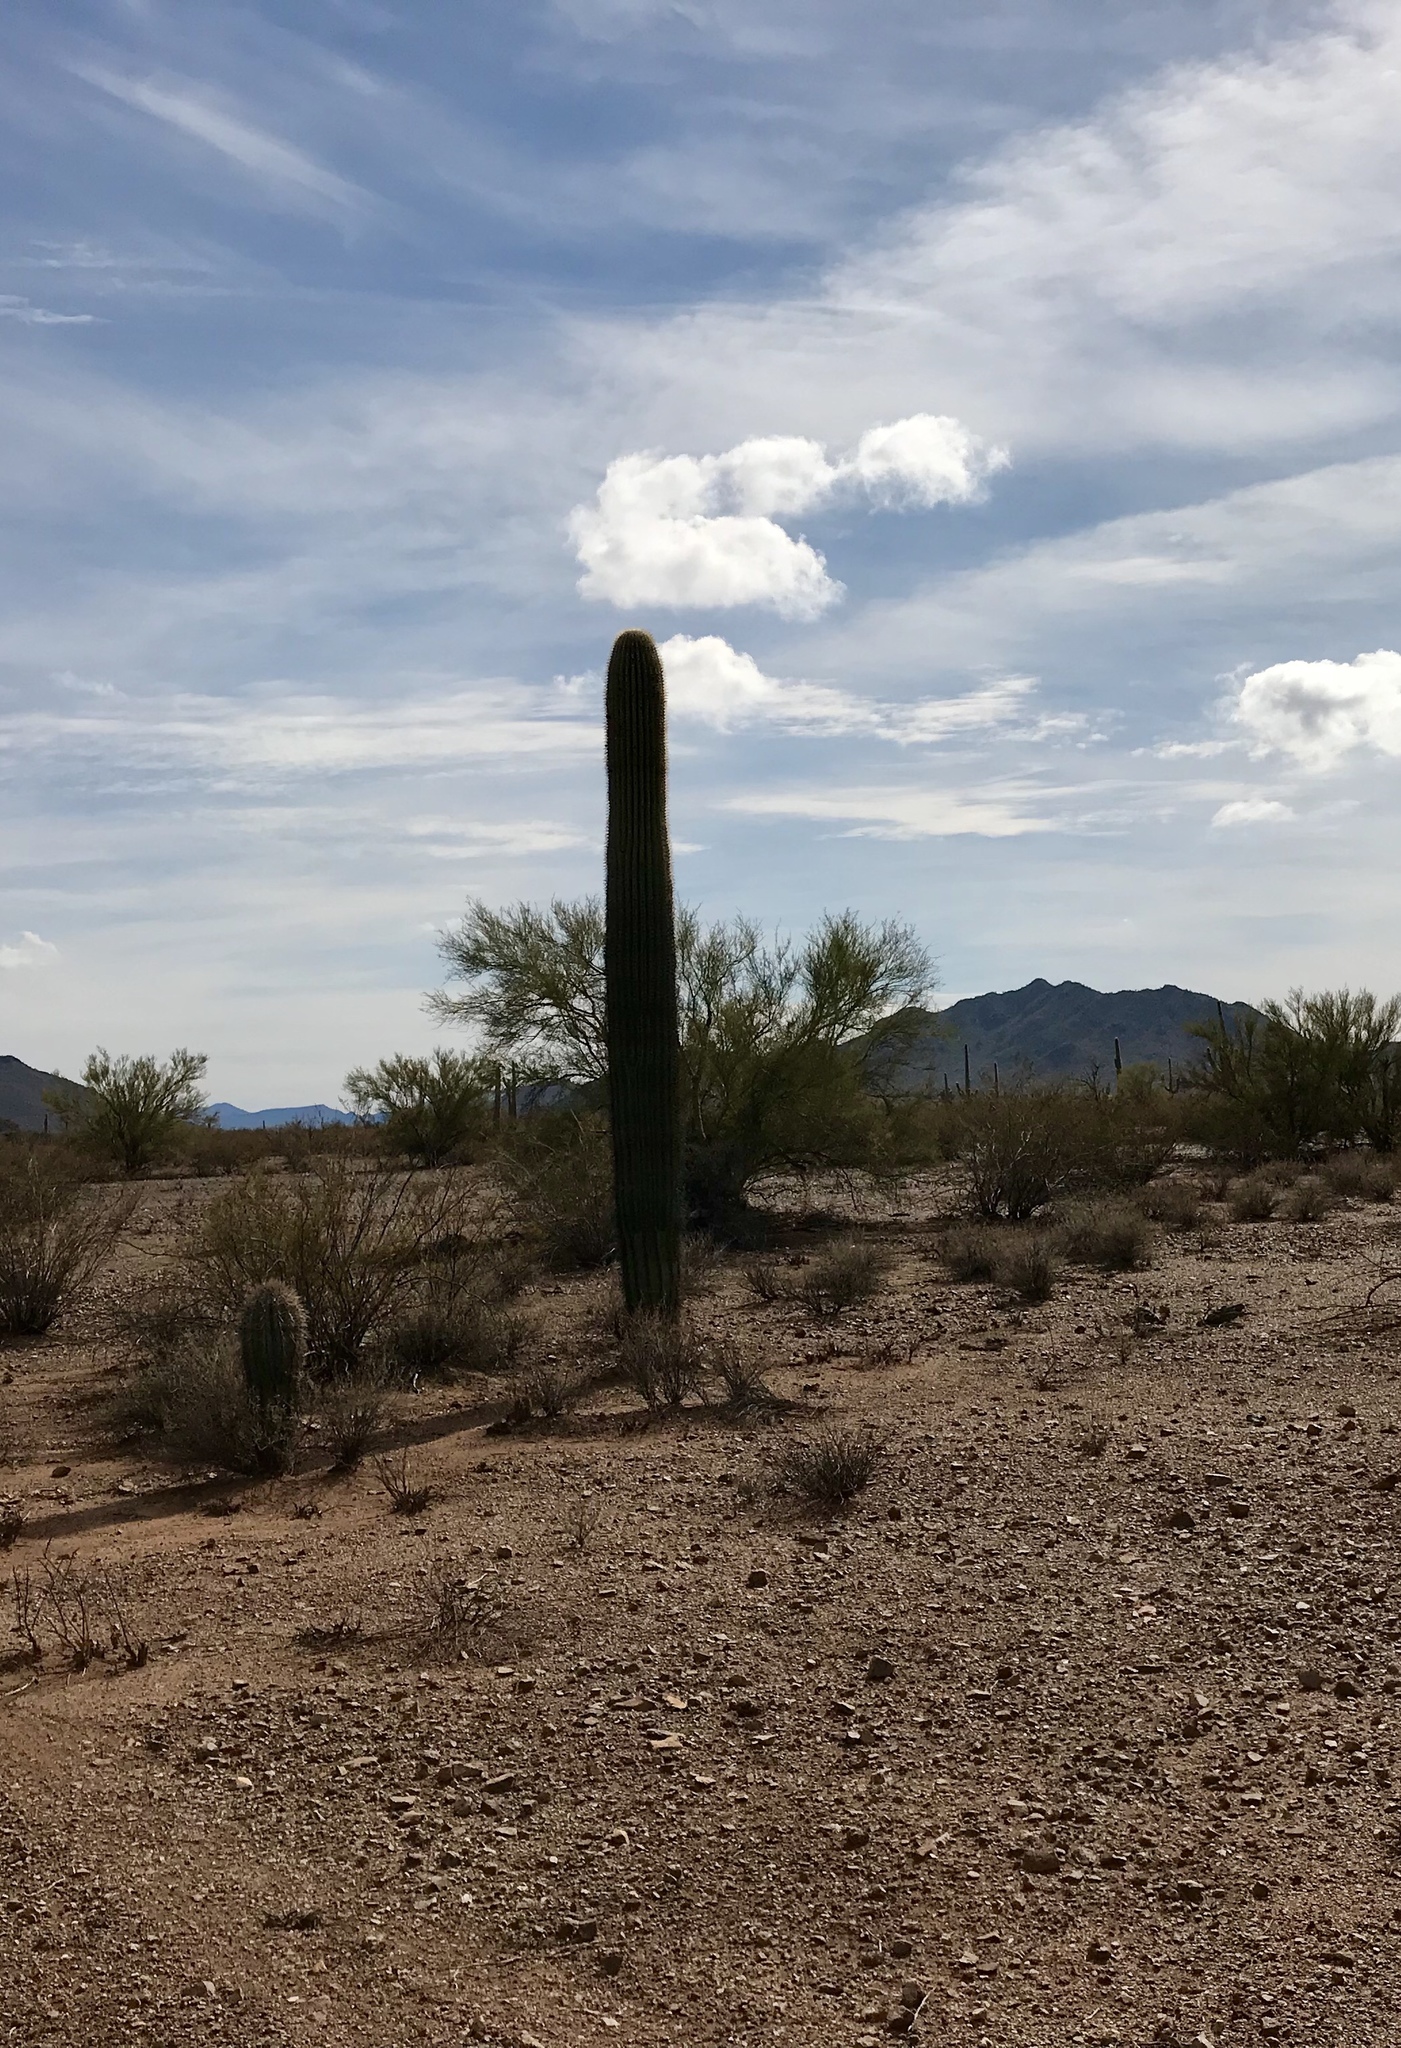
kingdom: Plantae
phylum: Tracheophyta
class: Magnoliopsida
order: Caryophyllales
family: Cactaceae
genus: Carnegiea
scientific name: Carnegiea gigantea
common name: Saguaro
